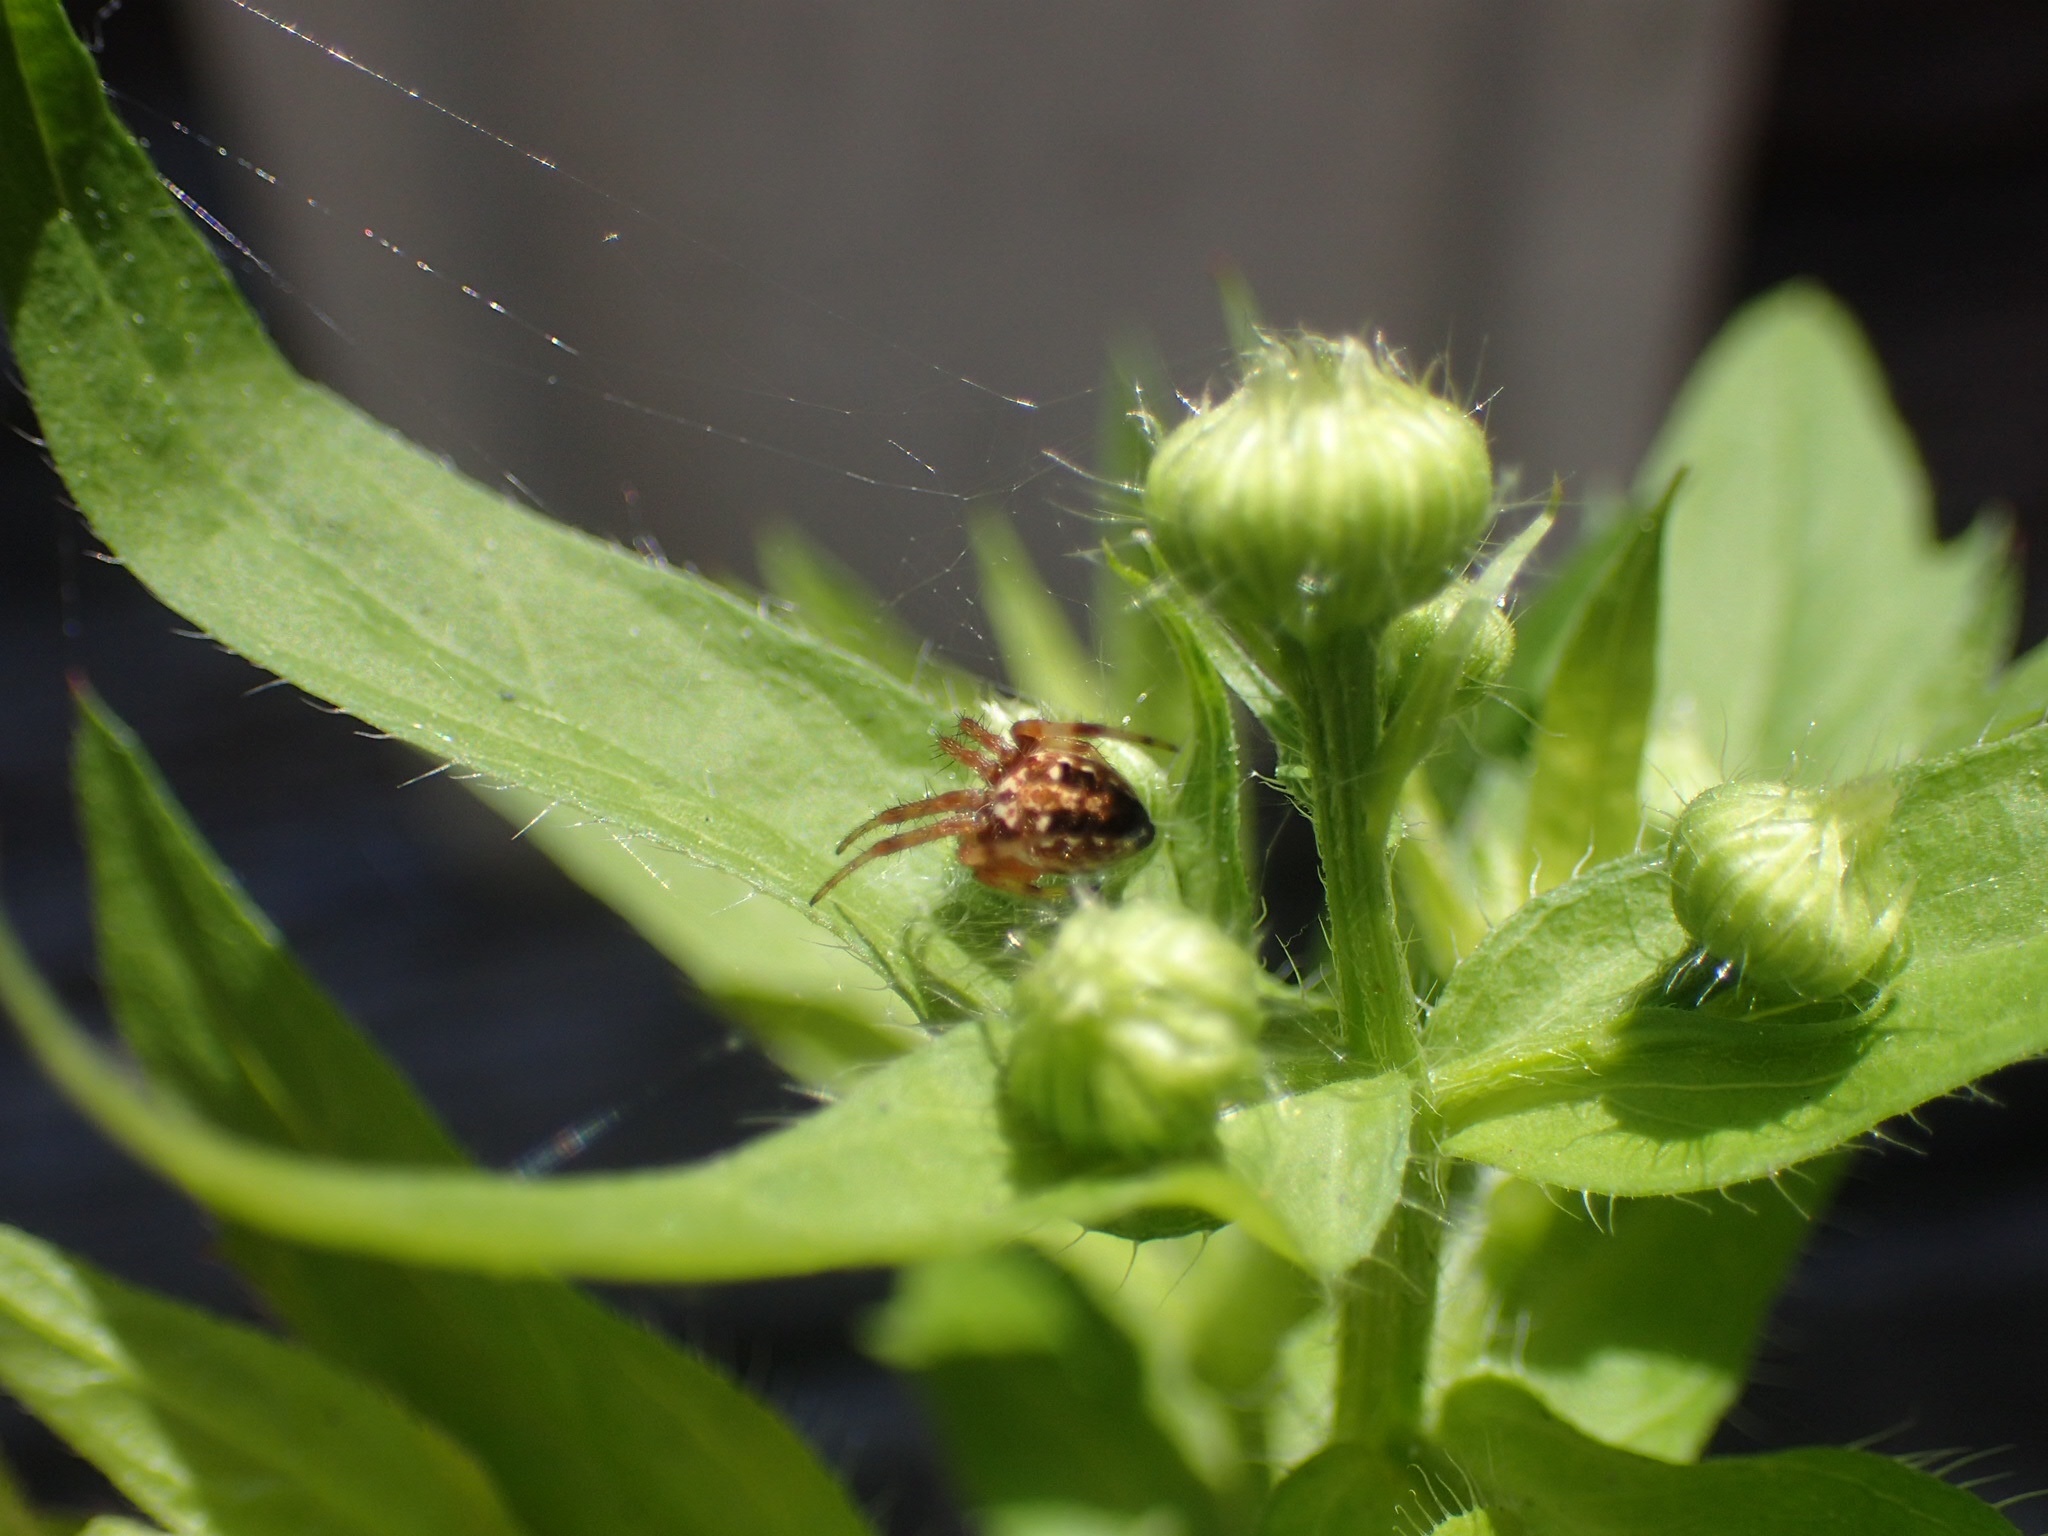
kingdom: Animalia
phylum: Arthropoda
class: Arachnida
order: Araneae
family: Araneidae
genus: Neoscona
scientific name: Neoscona arabesca
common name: Orb weavers
